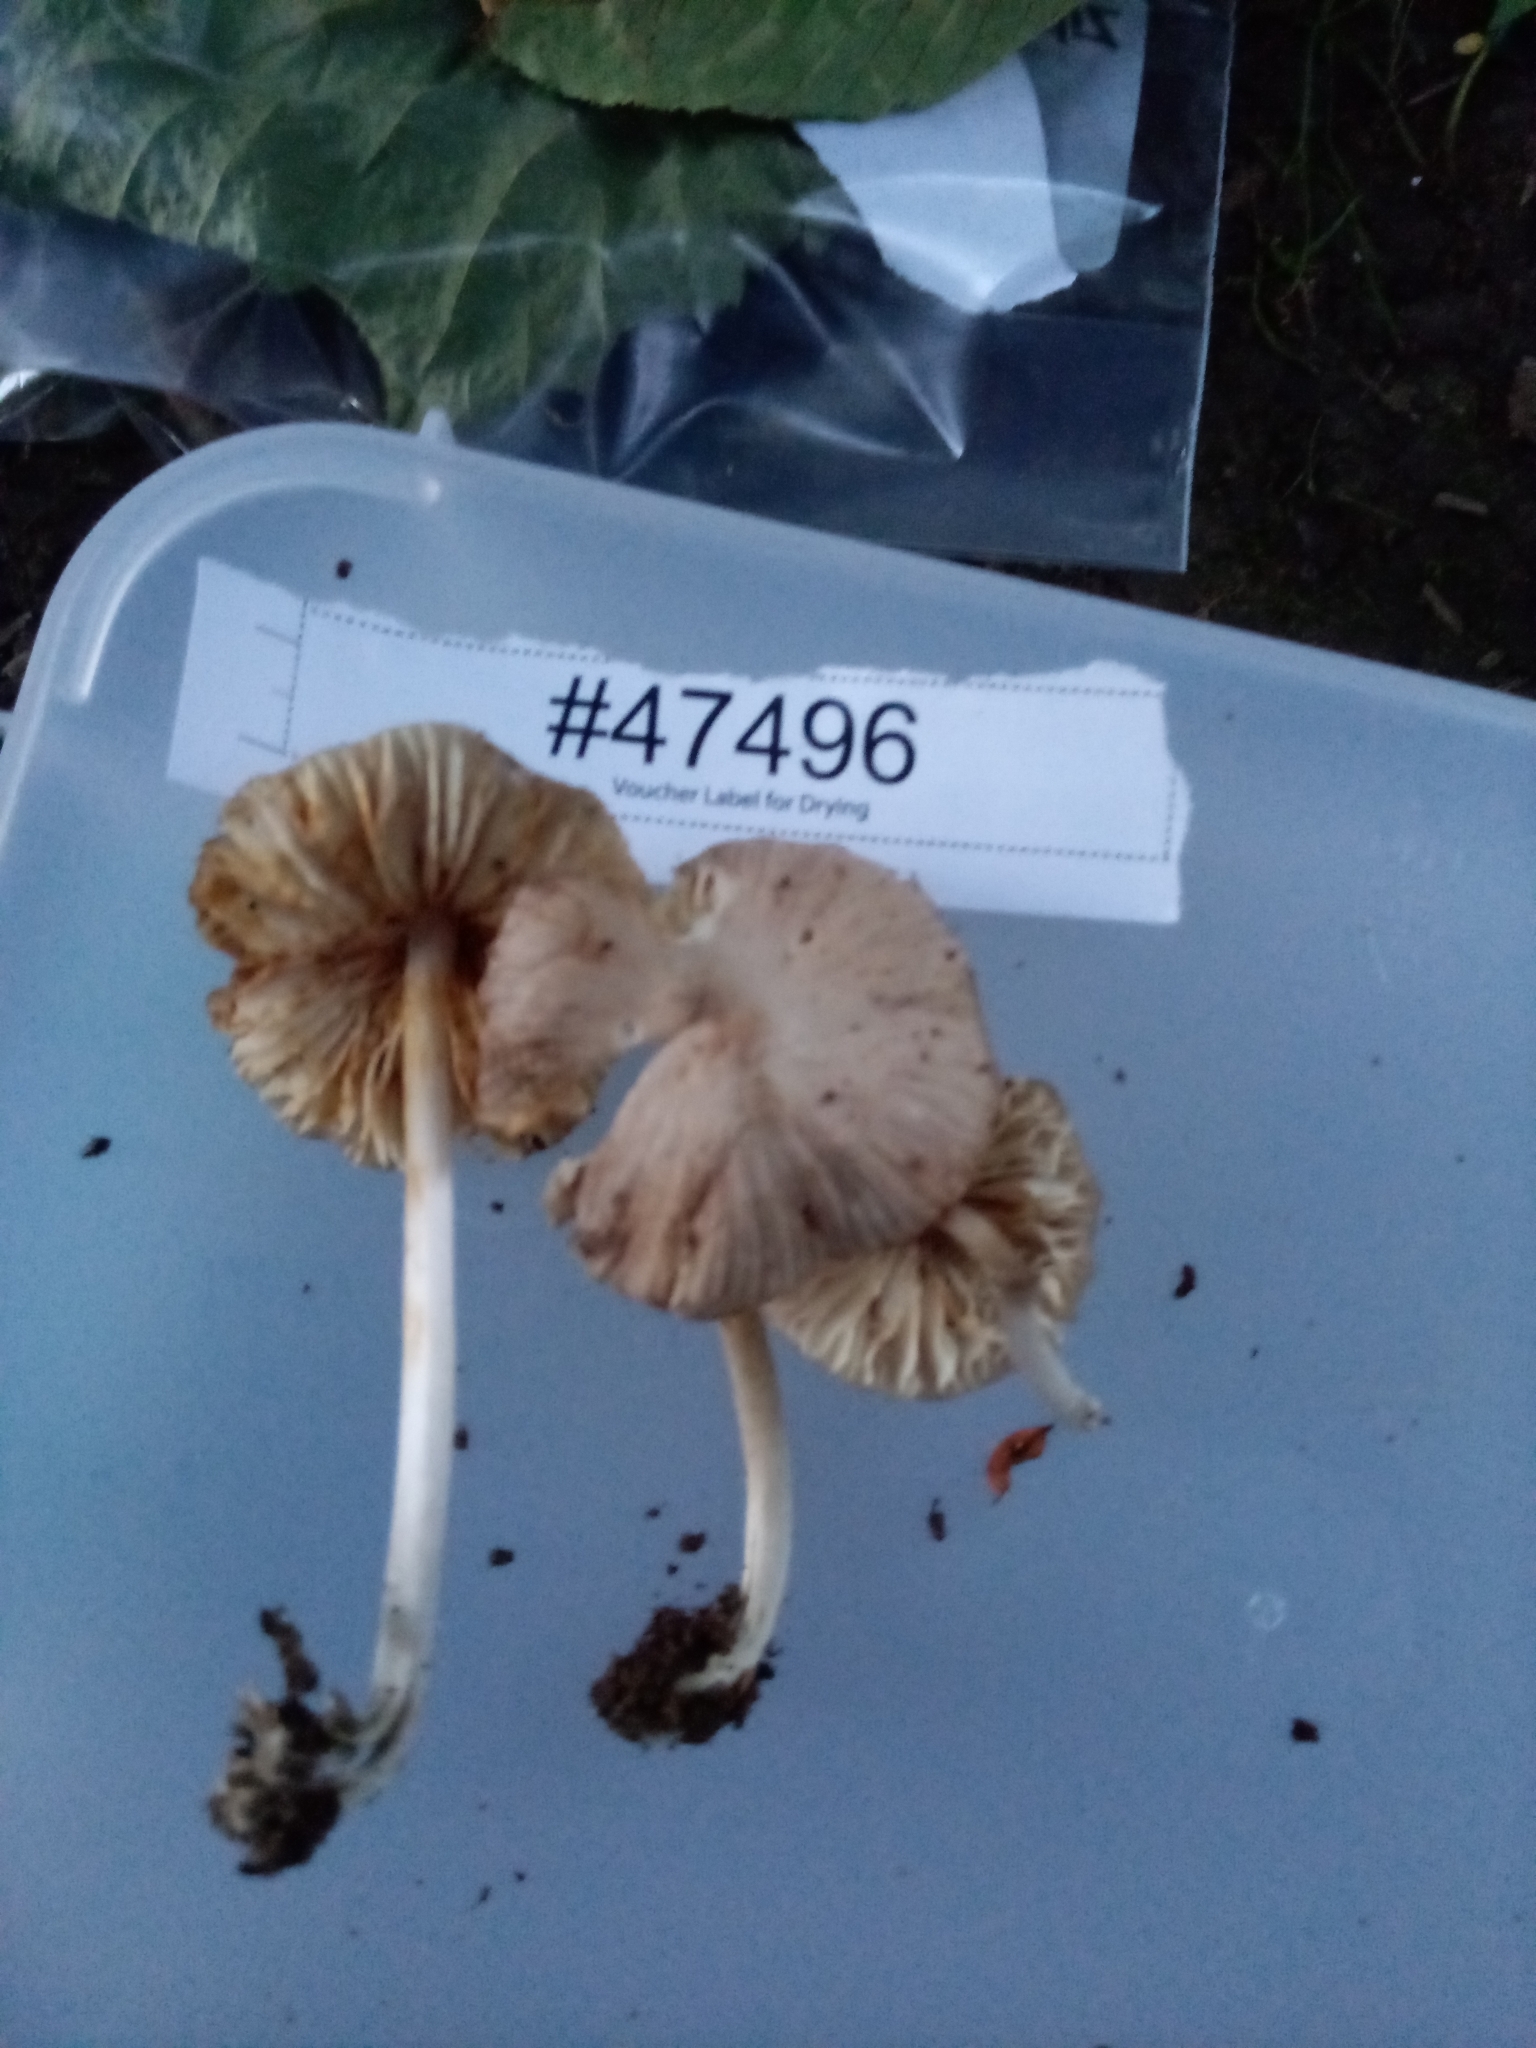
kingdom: Fungi
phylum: Basidiomycota
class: Agaricomycetes
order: Agaricales
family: Mycenaceae
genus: Mycena
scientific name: Mycena niveipes
